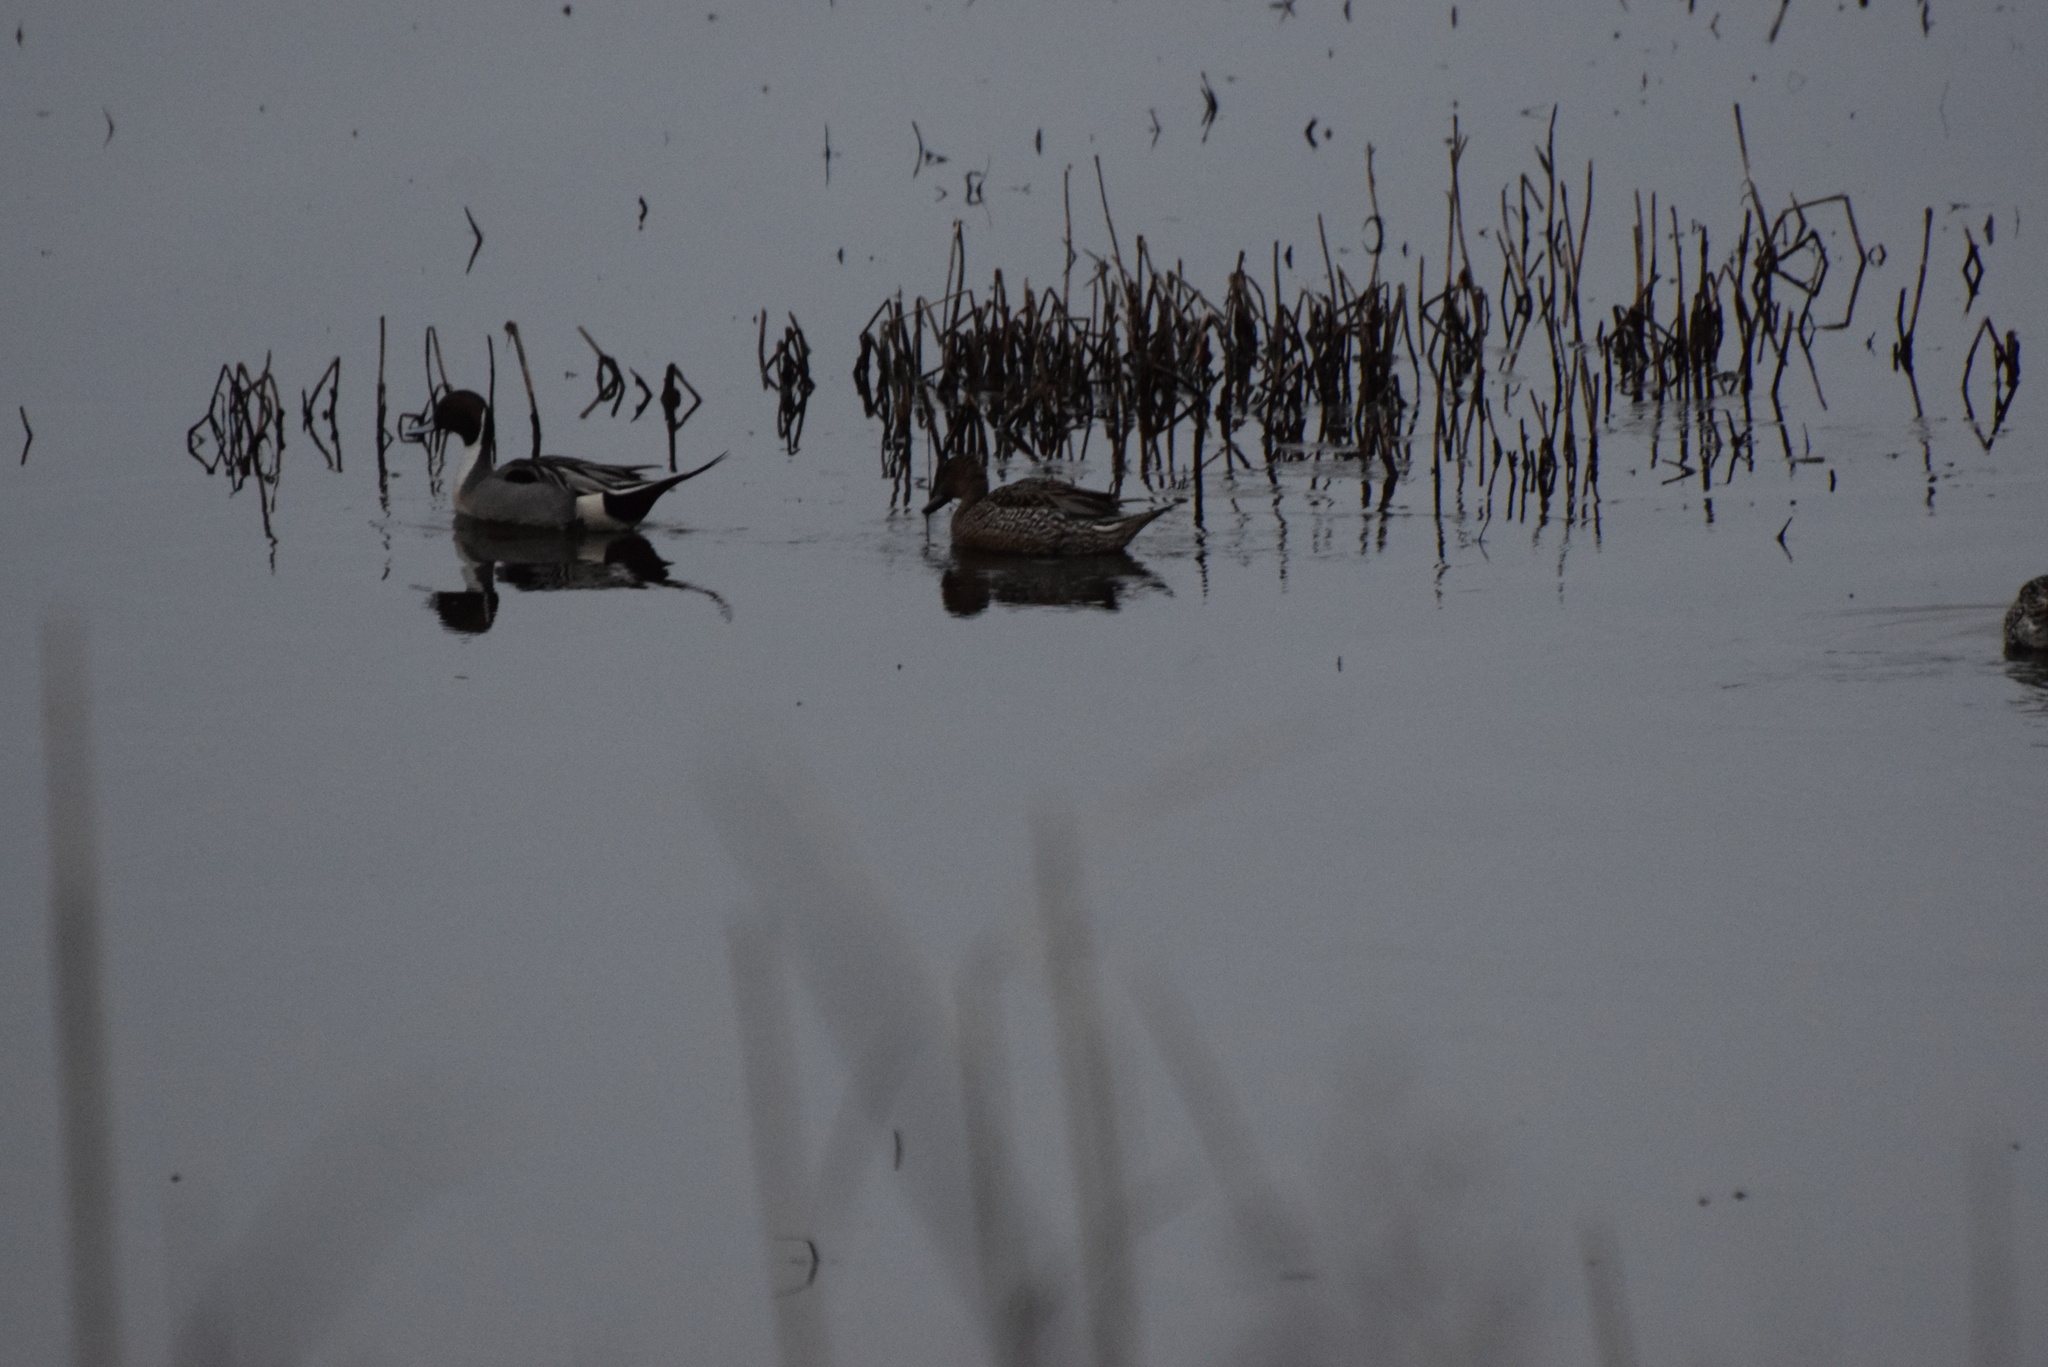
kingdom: Animalia
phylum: Chordata
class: Aves
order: Anseriformes
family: Anatidae
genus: Anas
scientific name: Anas acuta
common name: Northern pintail
